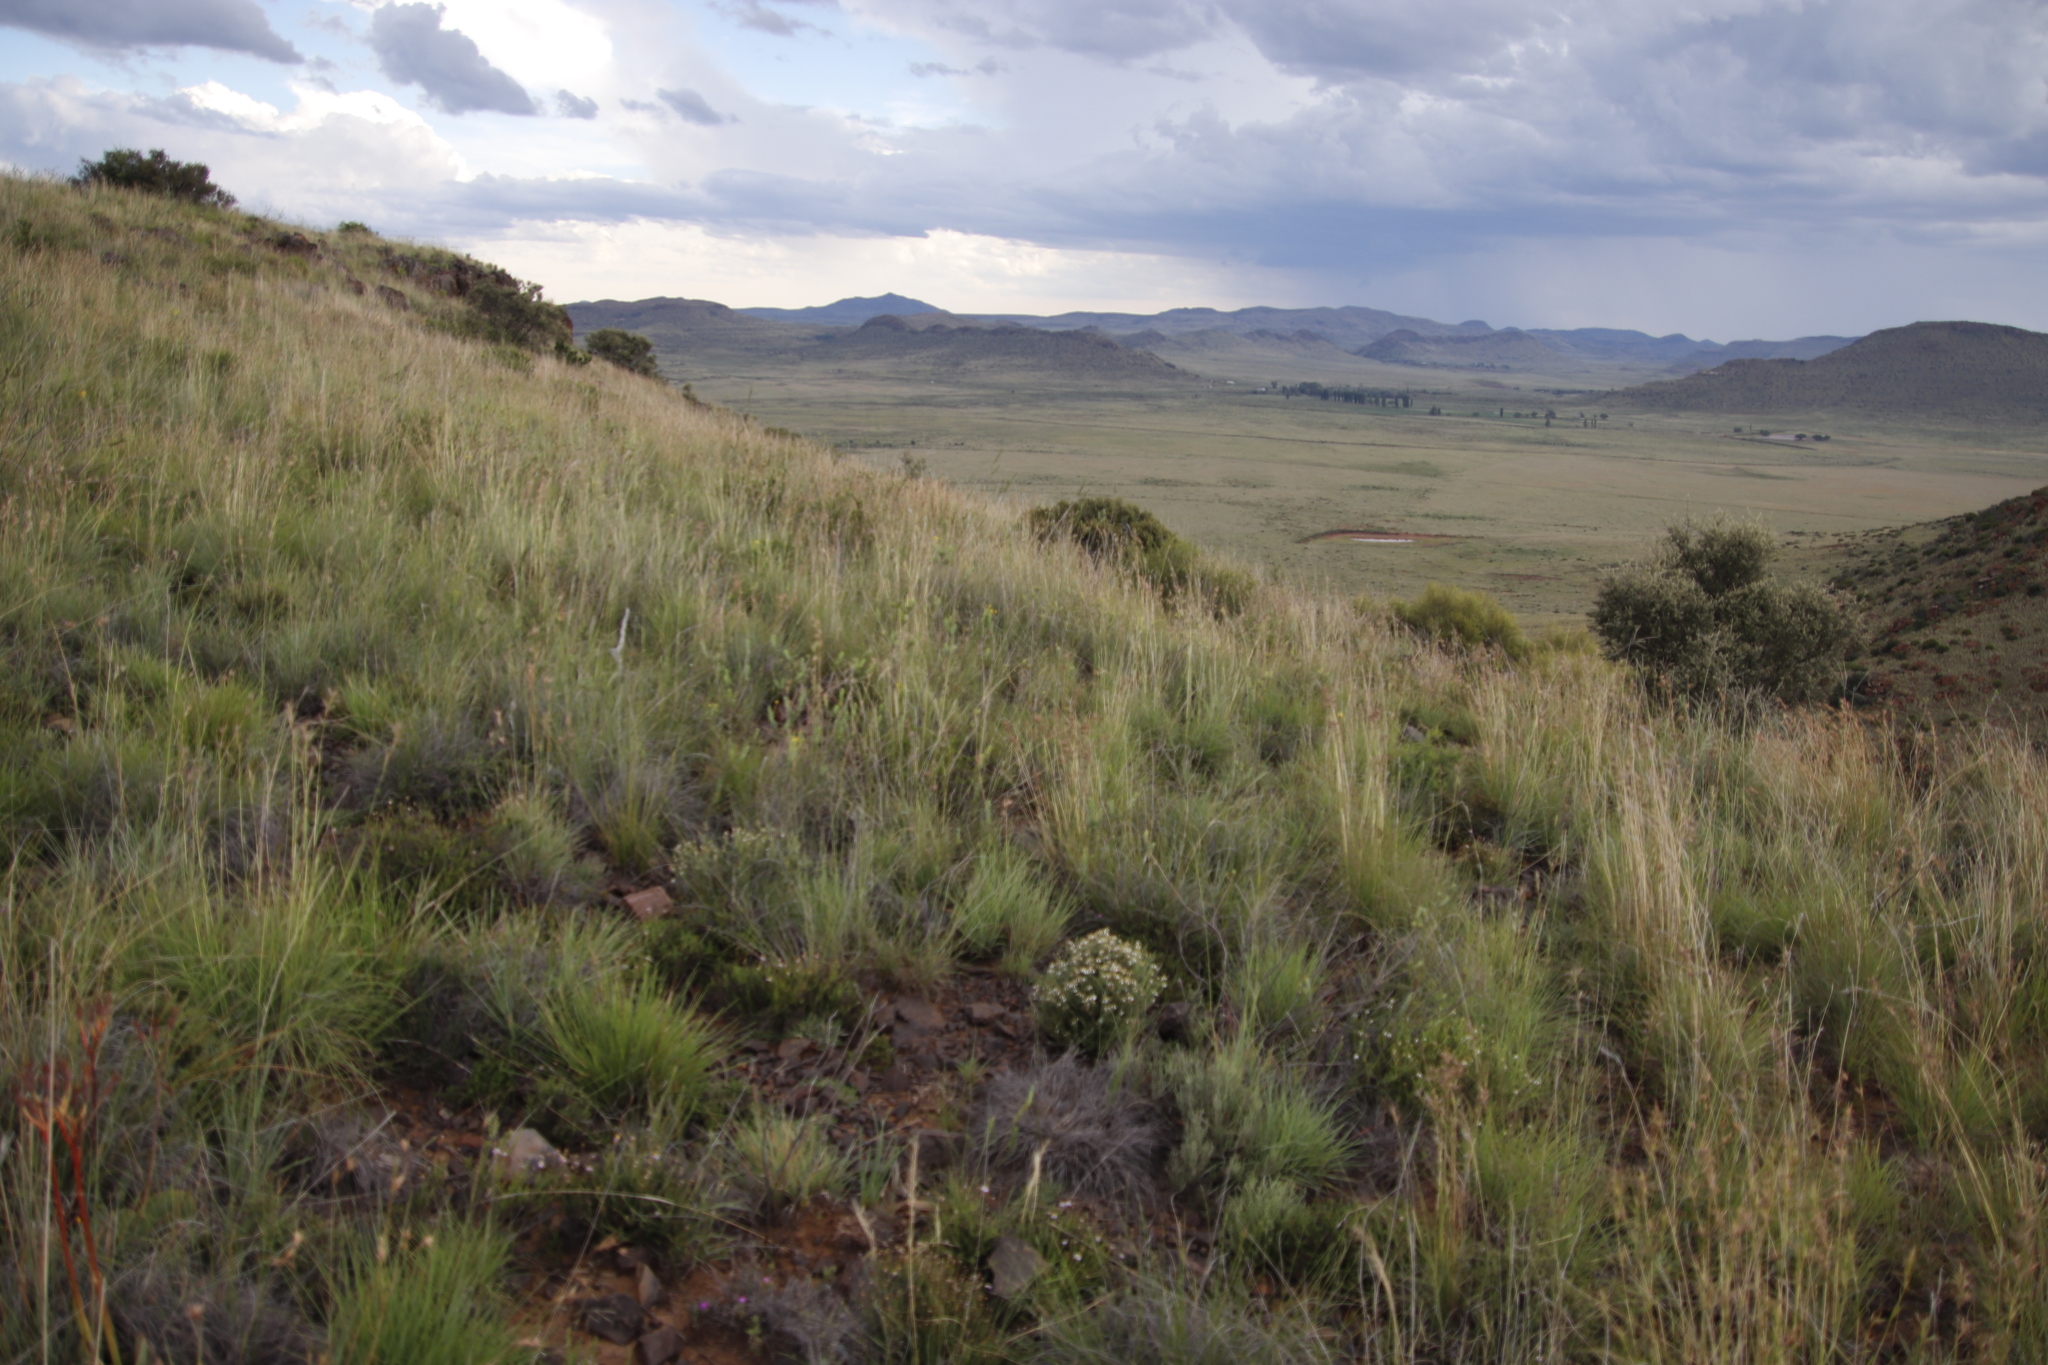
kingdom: Plantae
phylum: Tracheophyta
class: Liliopsida
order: Poales
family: Poaceae
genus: Themeda
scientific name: Themeda triandra
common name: Kangaroo grass
